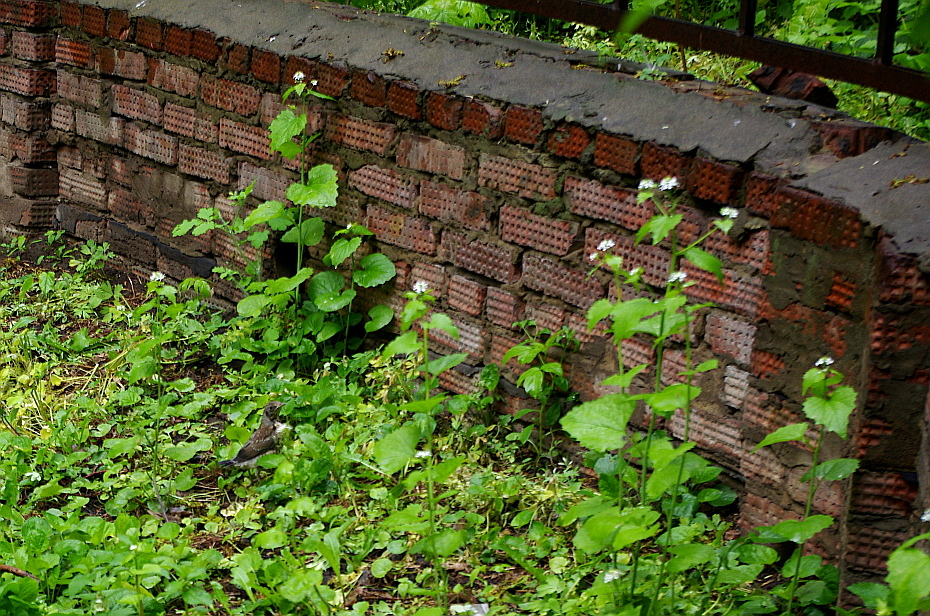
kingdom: Plantae
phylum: Tracheophyta
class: Magnoliopsida
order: Brassicales
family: Brassicaceae
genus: Alliaria
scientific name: Alliaria petiolata
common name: Garlic mustard
